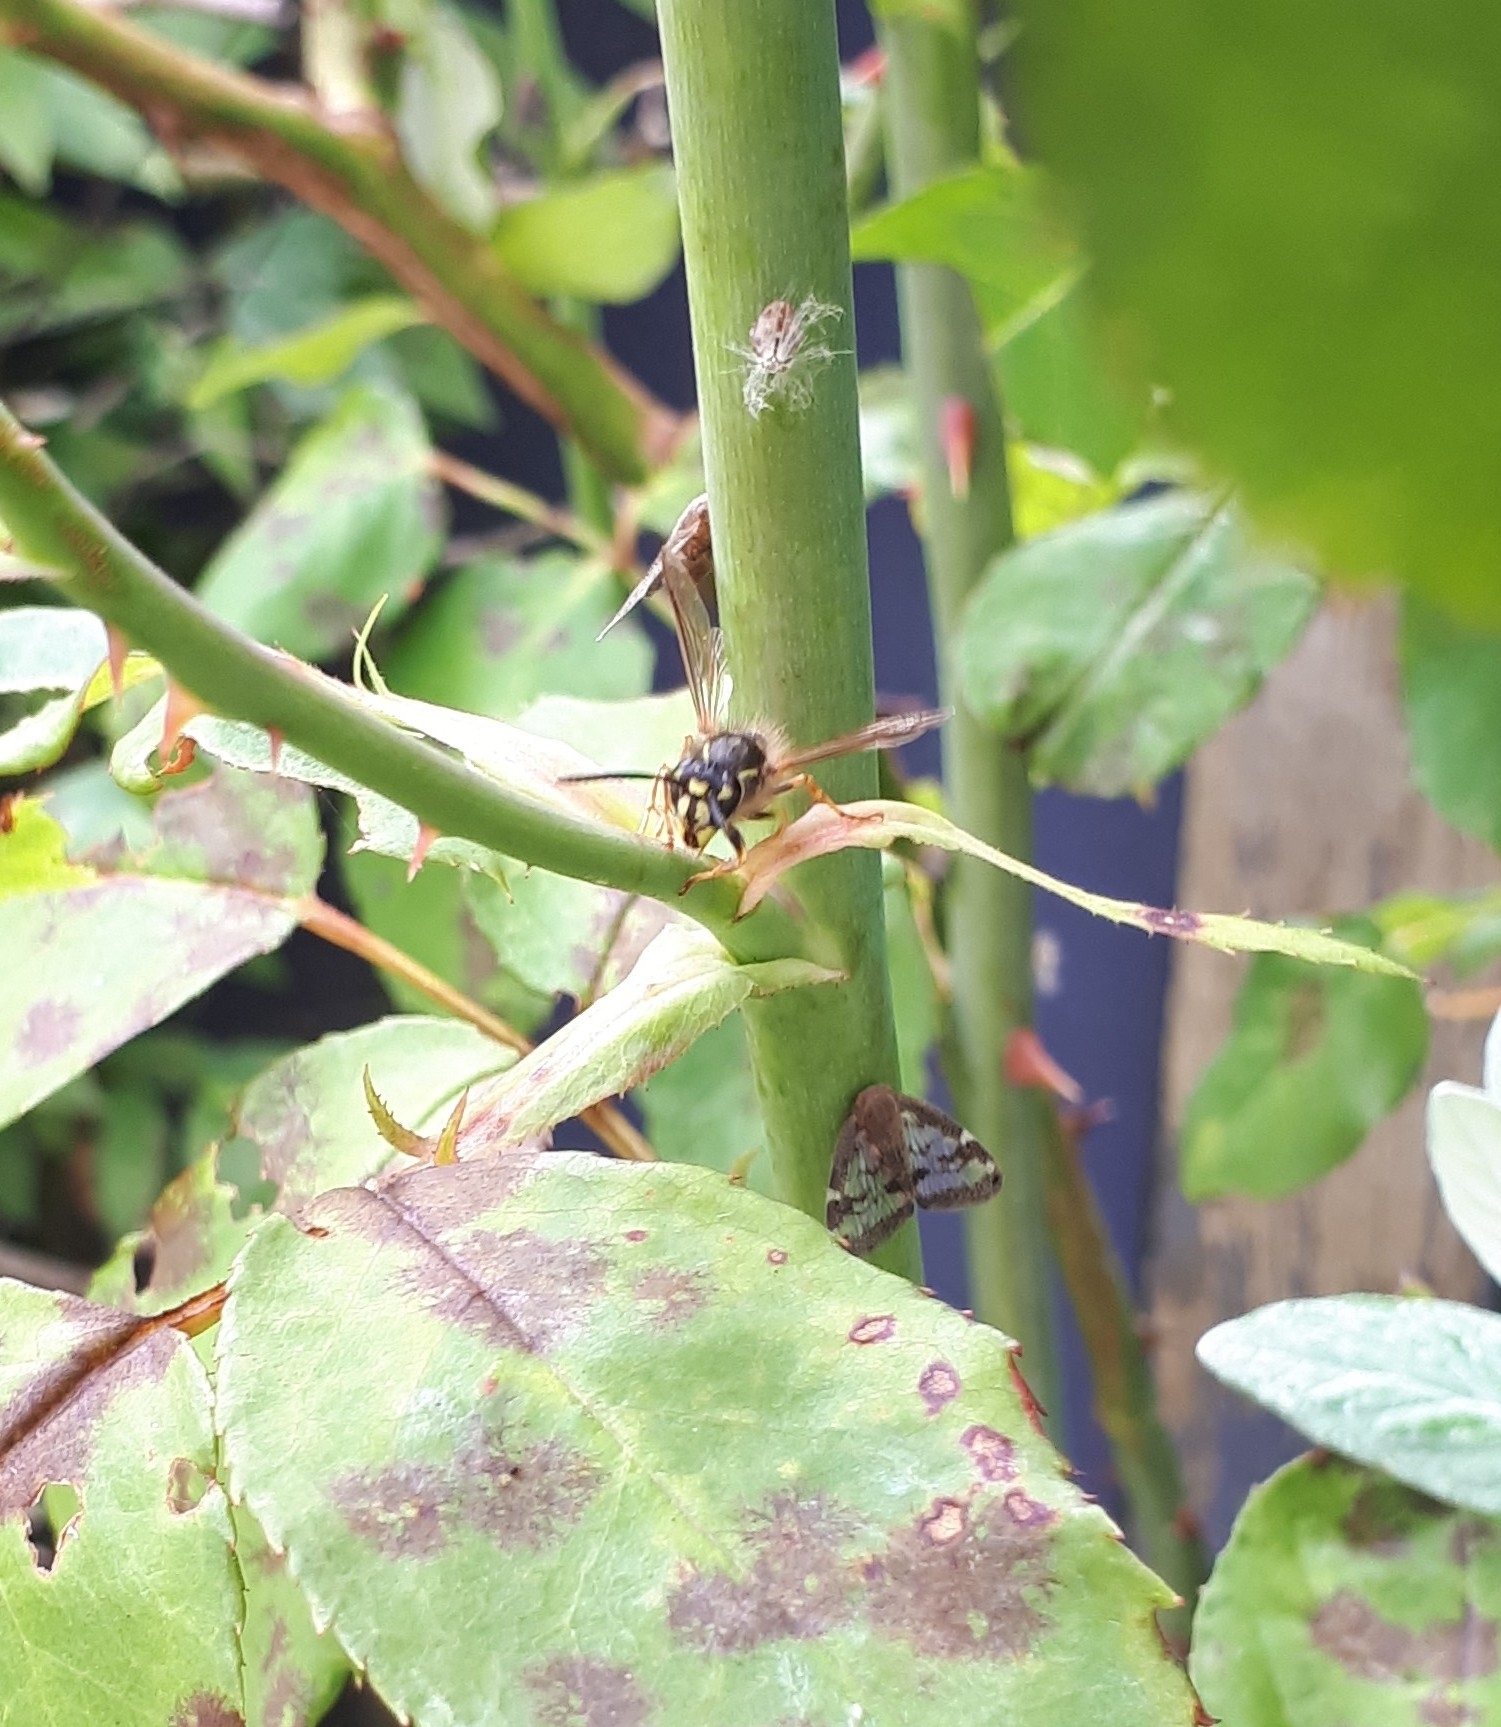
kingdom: Animalia
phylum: Arthropoda
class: Insecta
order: Hymenoptera
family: Vespidae
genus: Vespula
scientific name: Vespula vulgaris
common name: Common wasp
